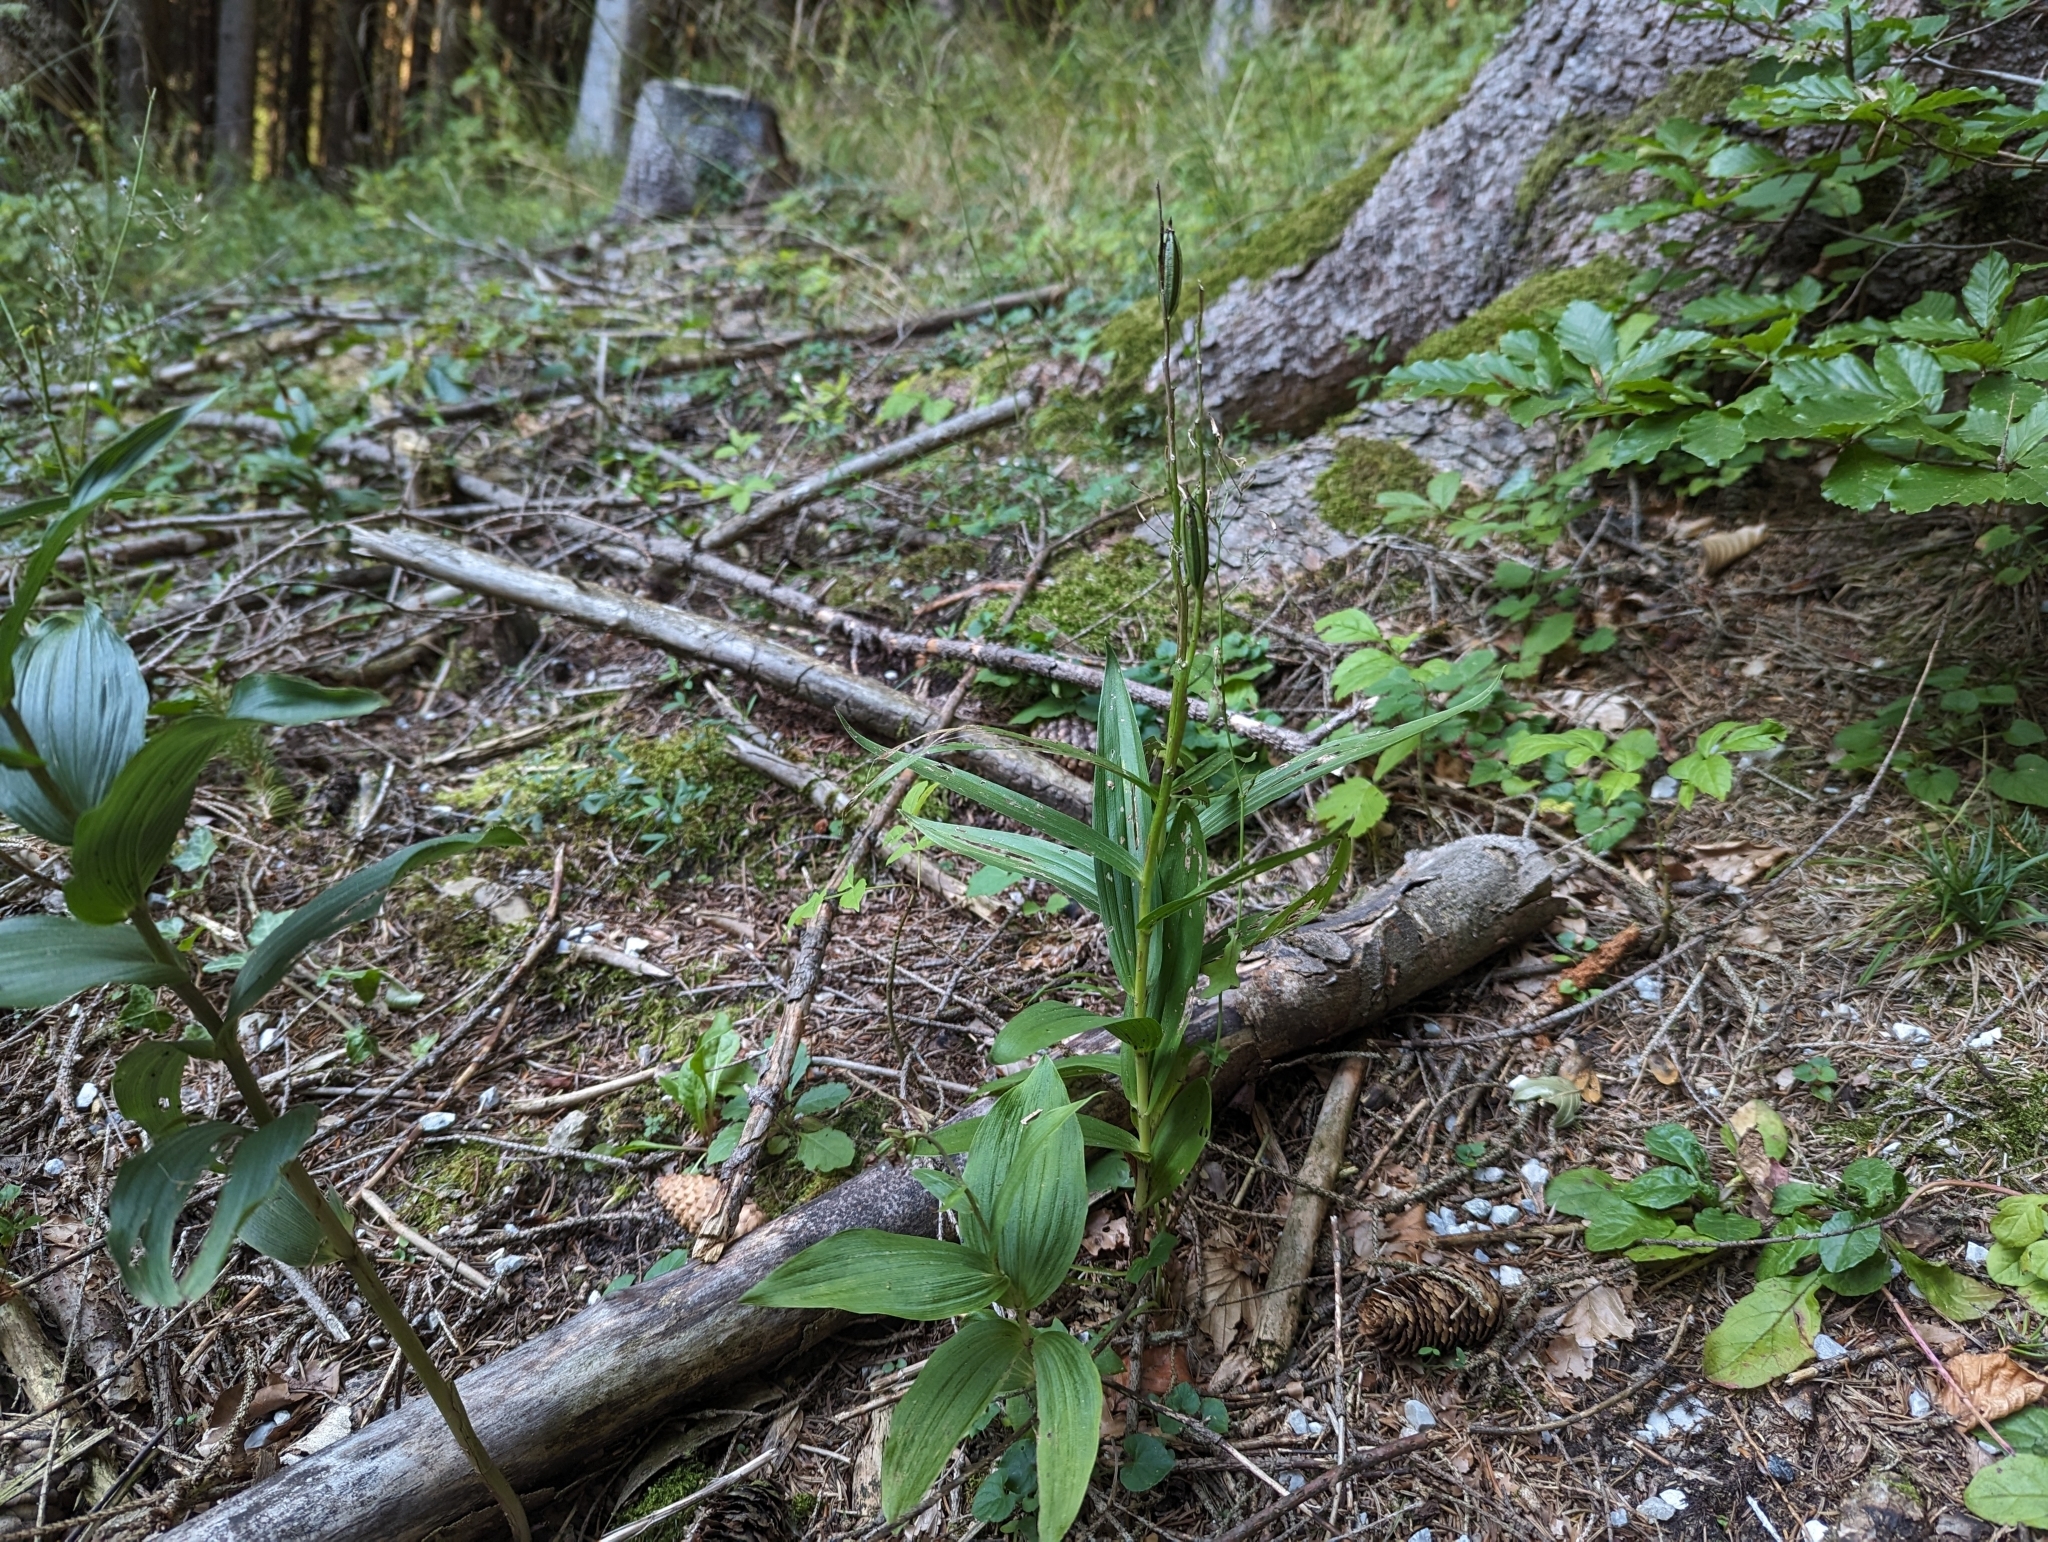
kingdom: Plantae
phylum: Tracheophyta
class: Liliopsida
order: Asparagales
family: Orchidaceae
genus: Cephalanthera
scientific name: Cephalanthera longifolia
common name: Narrow-leaved helleborine
